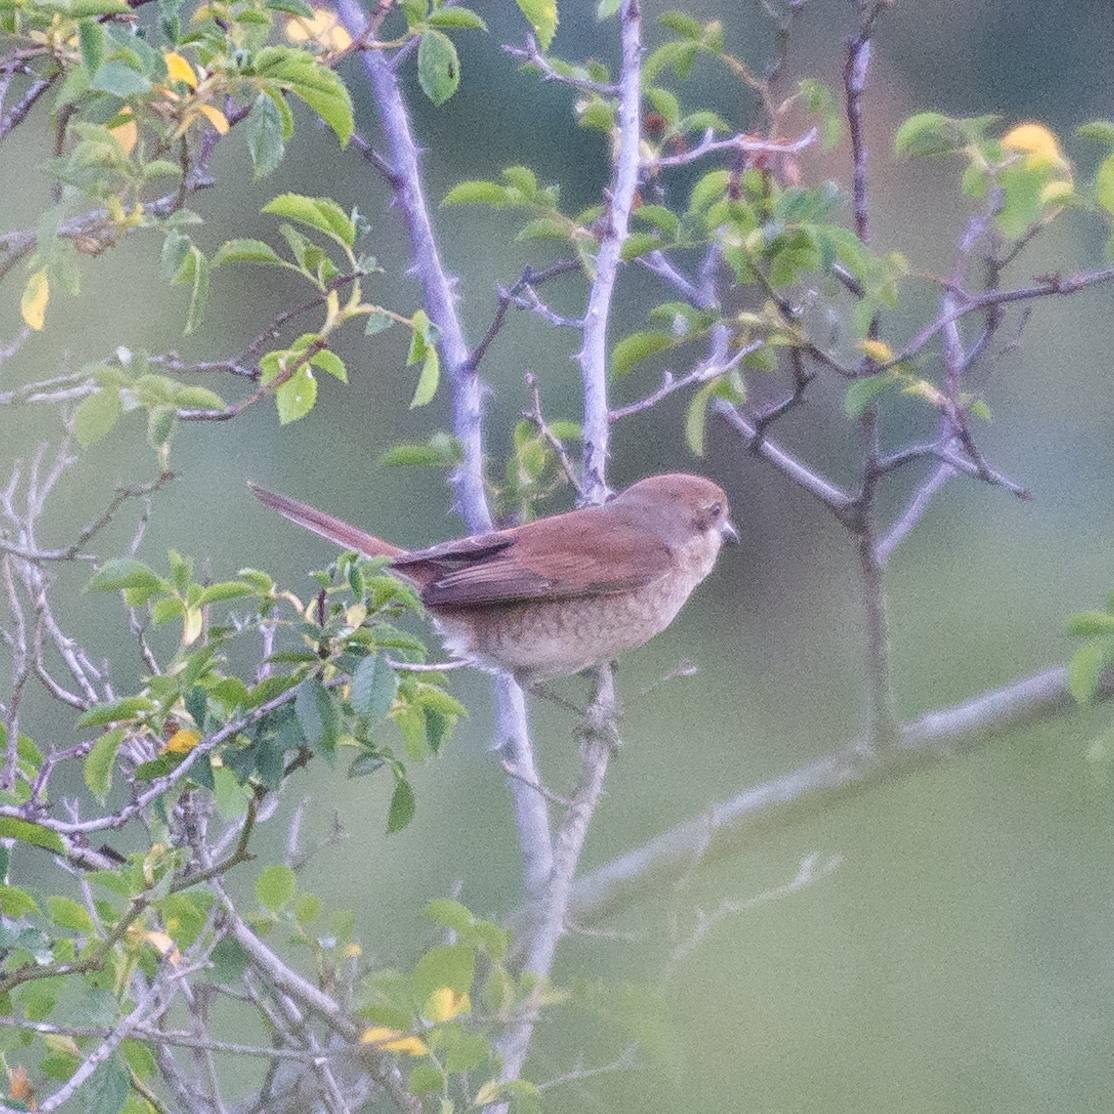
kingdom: Animalia
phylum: Chordata
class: Aves
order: Passeriformes
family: Laniidae
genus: Lanius
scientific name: Lanius collurio
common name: Red-backed shrike
